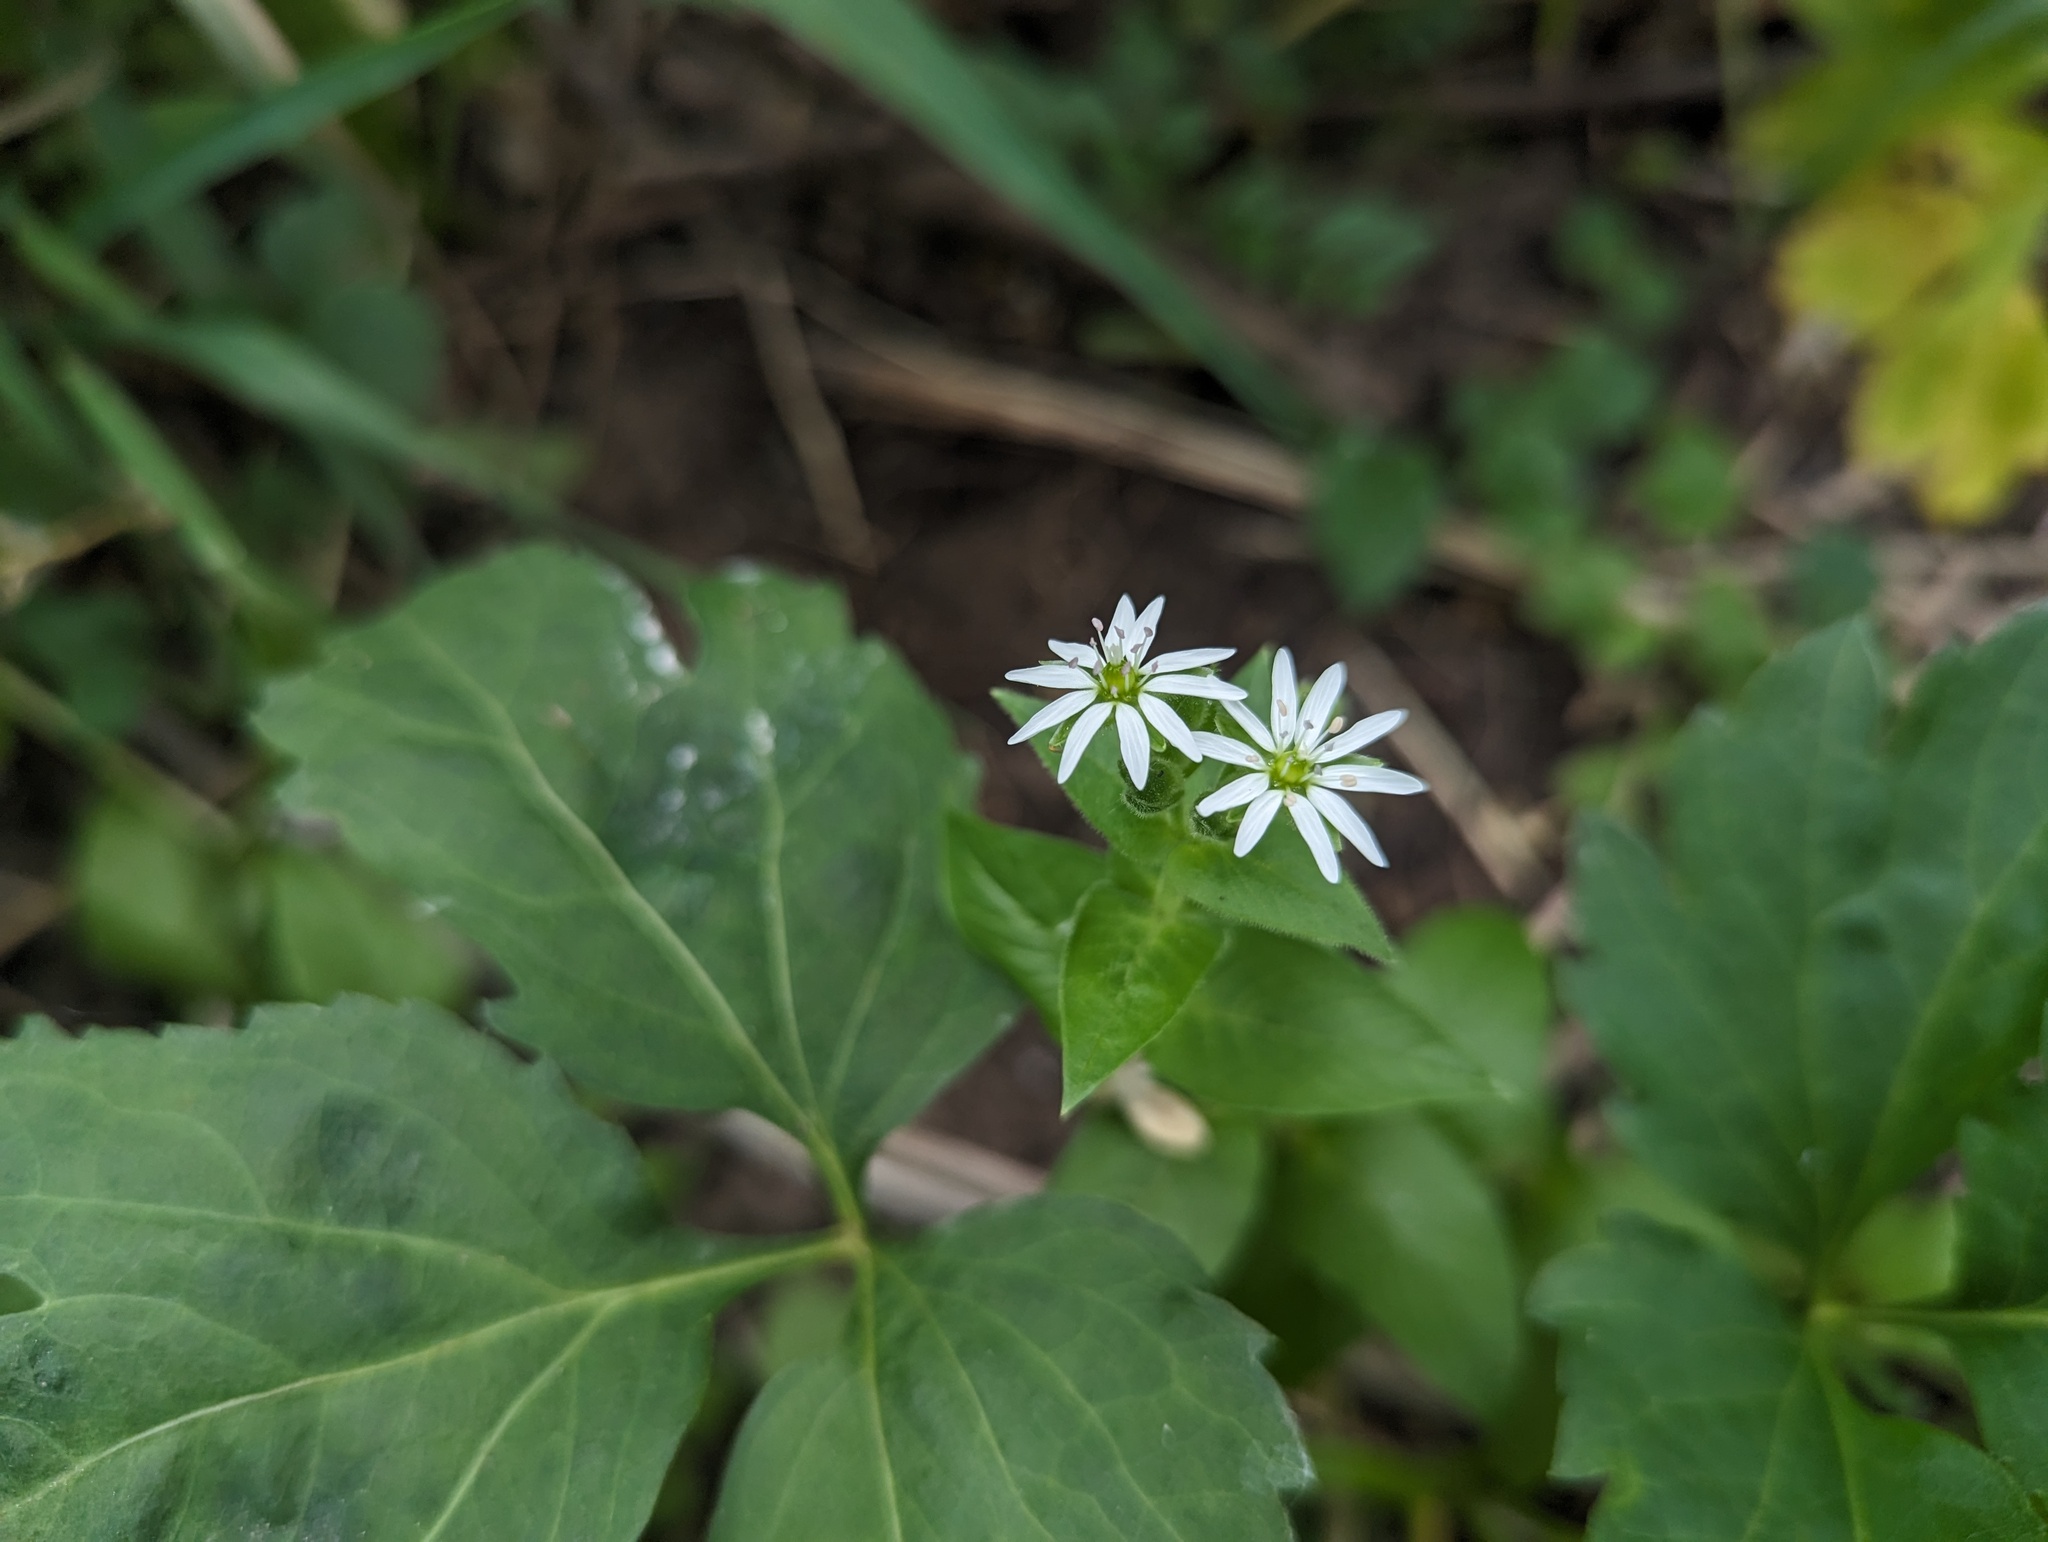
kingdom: Plantae
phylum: Tracheophyta
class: Magnoliopsida
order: Caryophyllales
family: Caryophyllaceae
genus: Stellaria
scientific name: Stellaria aquatica
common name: Water chickweed
